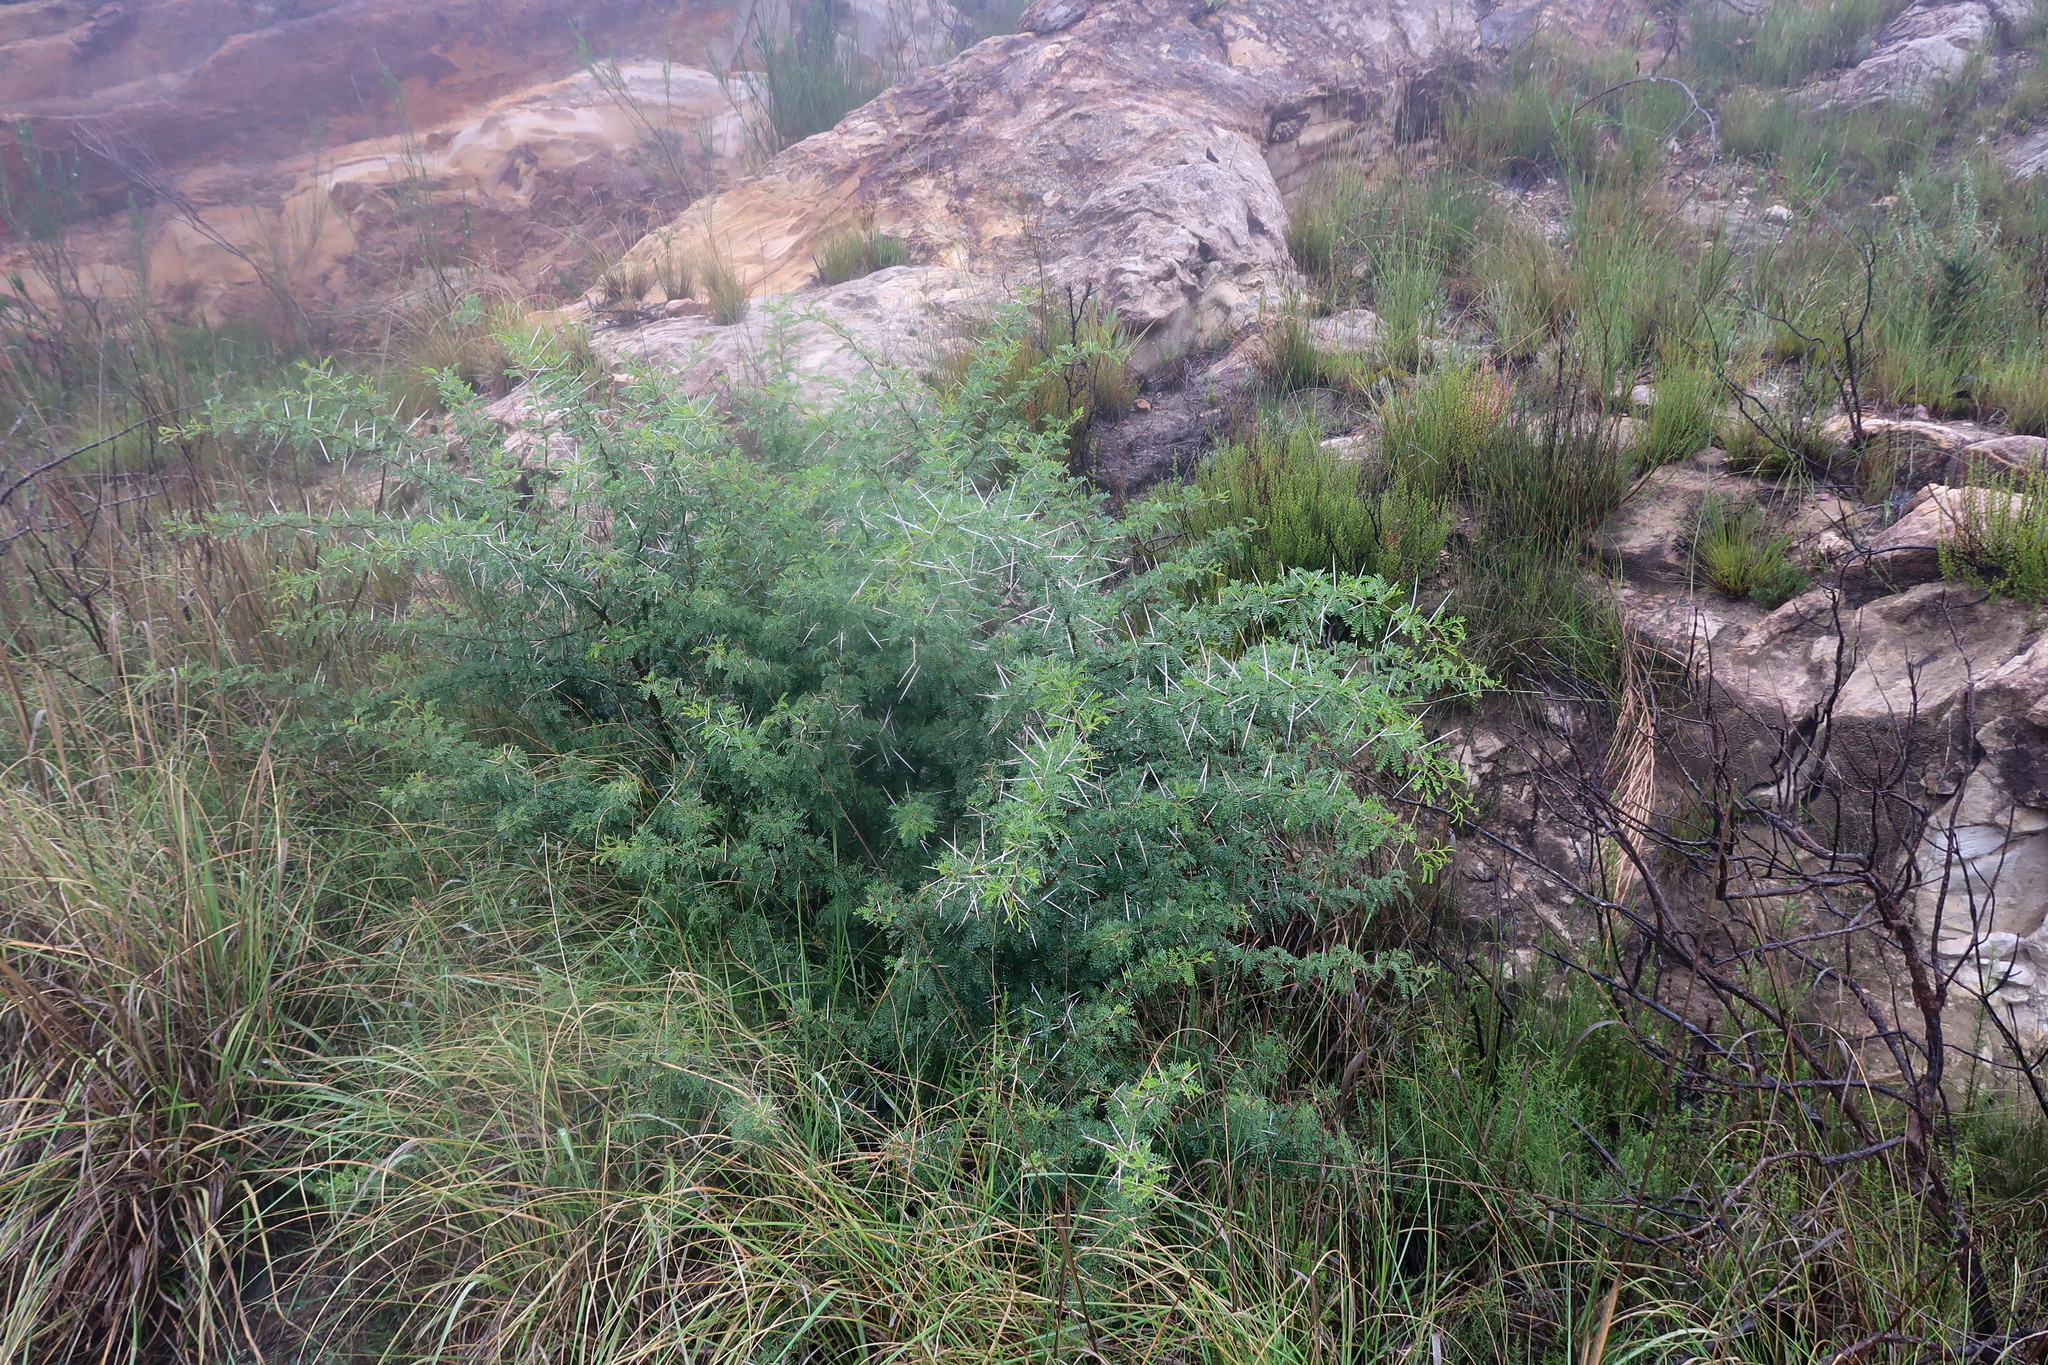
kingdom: Plantae
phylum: Tracheophyta
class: Magnoliopsida
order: Fabales
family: Fabaceae
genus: Vachellia
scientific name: Vachellia karroo
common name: Sweet thorn
